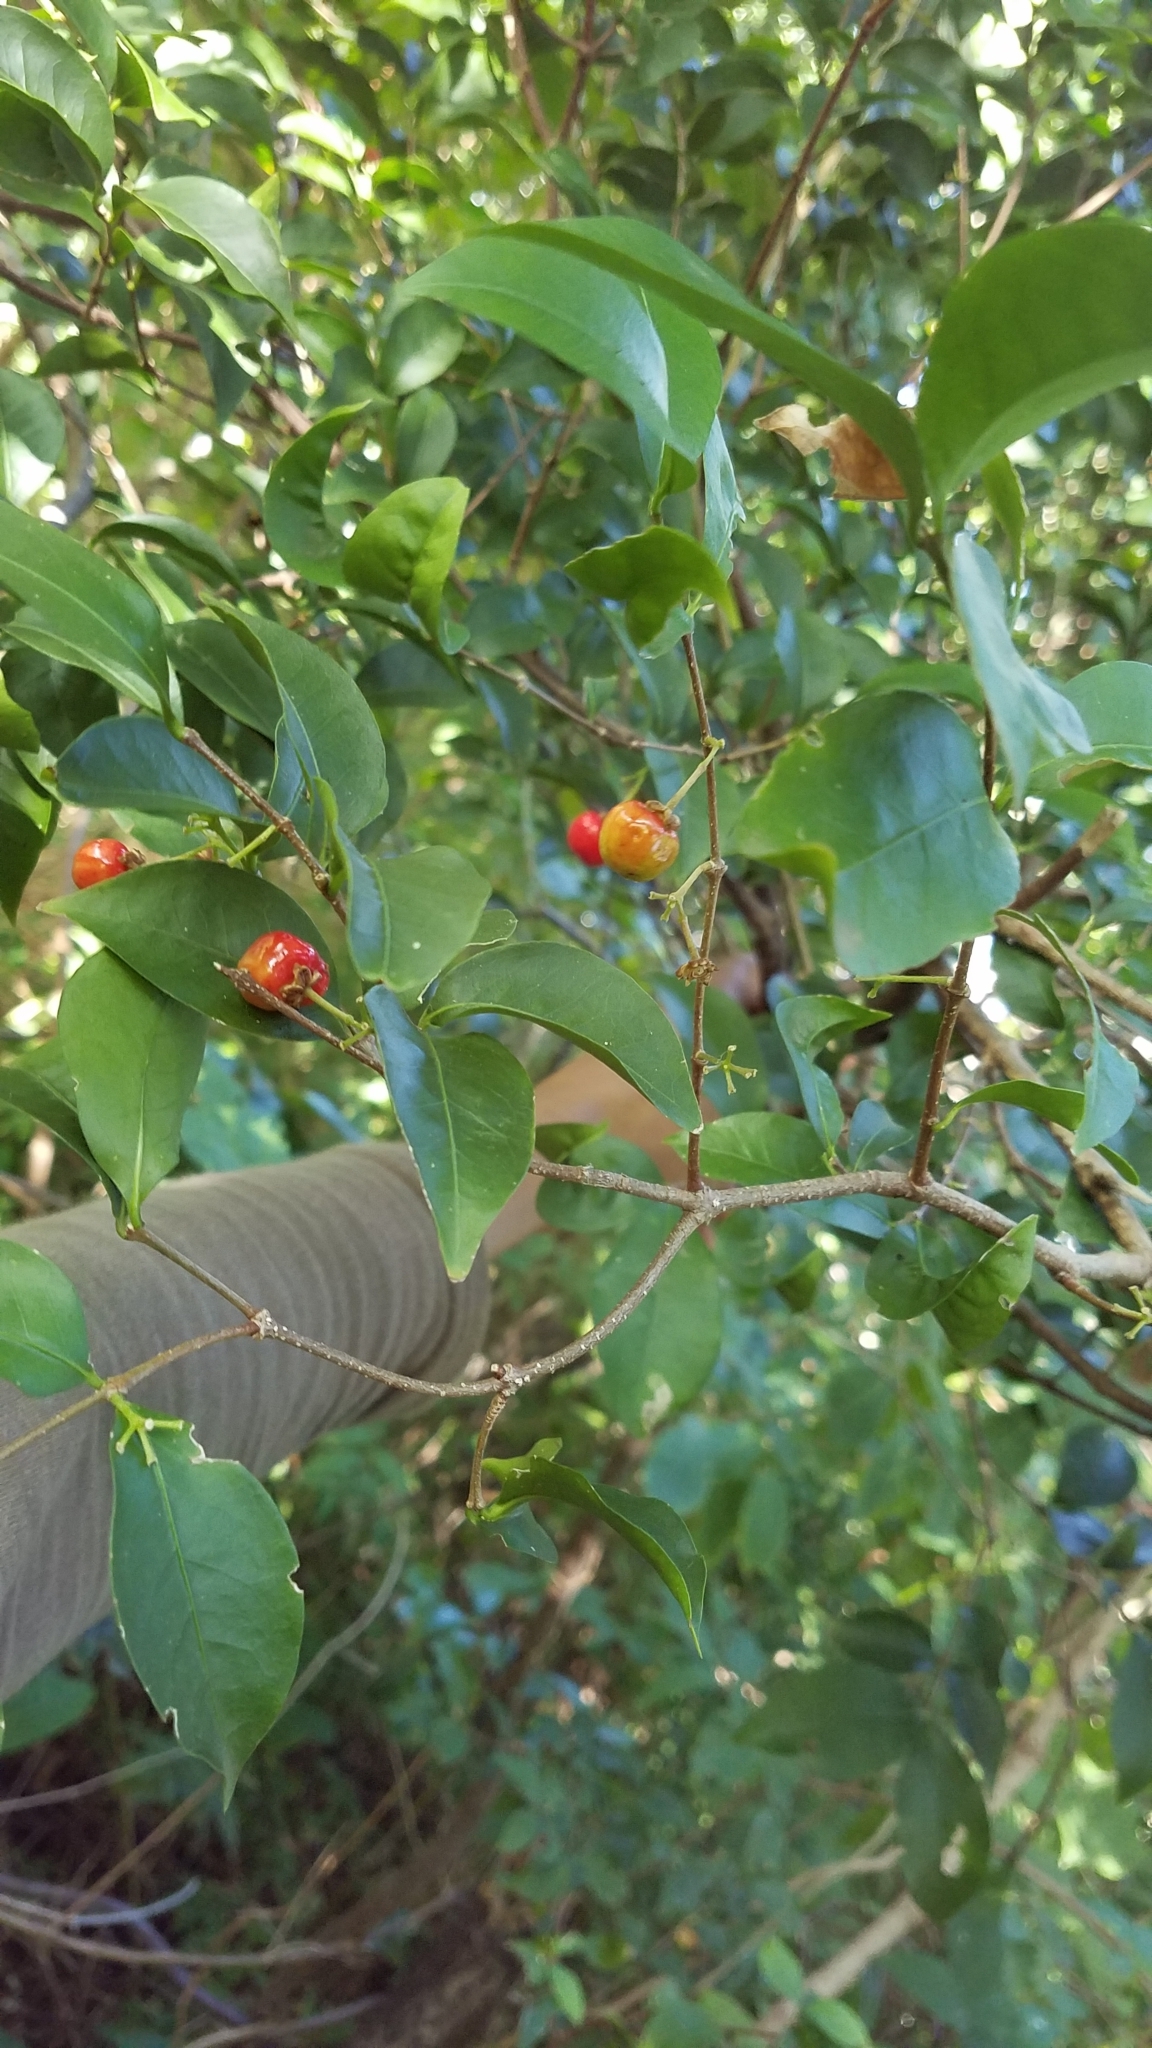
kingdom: Plantae
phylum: Tracheophyta
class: Magnoliopsida
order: Malpighiales
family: Malpighiaceae
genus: Malpighia
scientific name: Malpighia emarginata
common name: Barbados cherry
